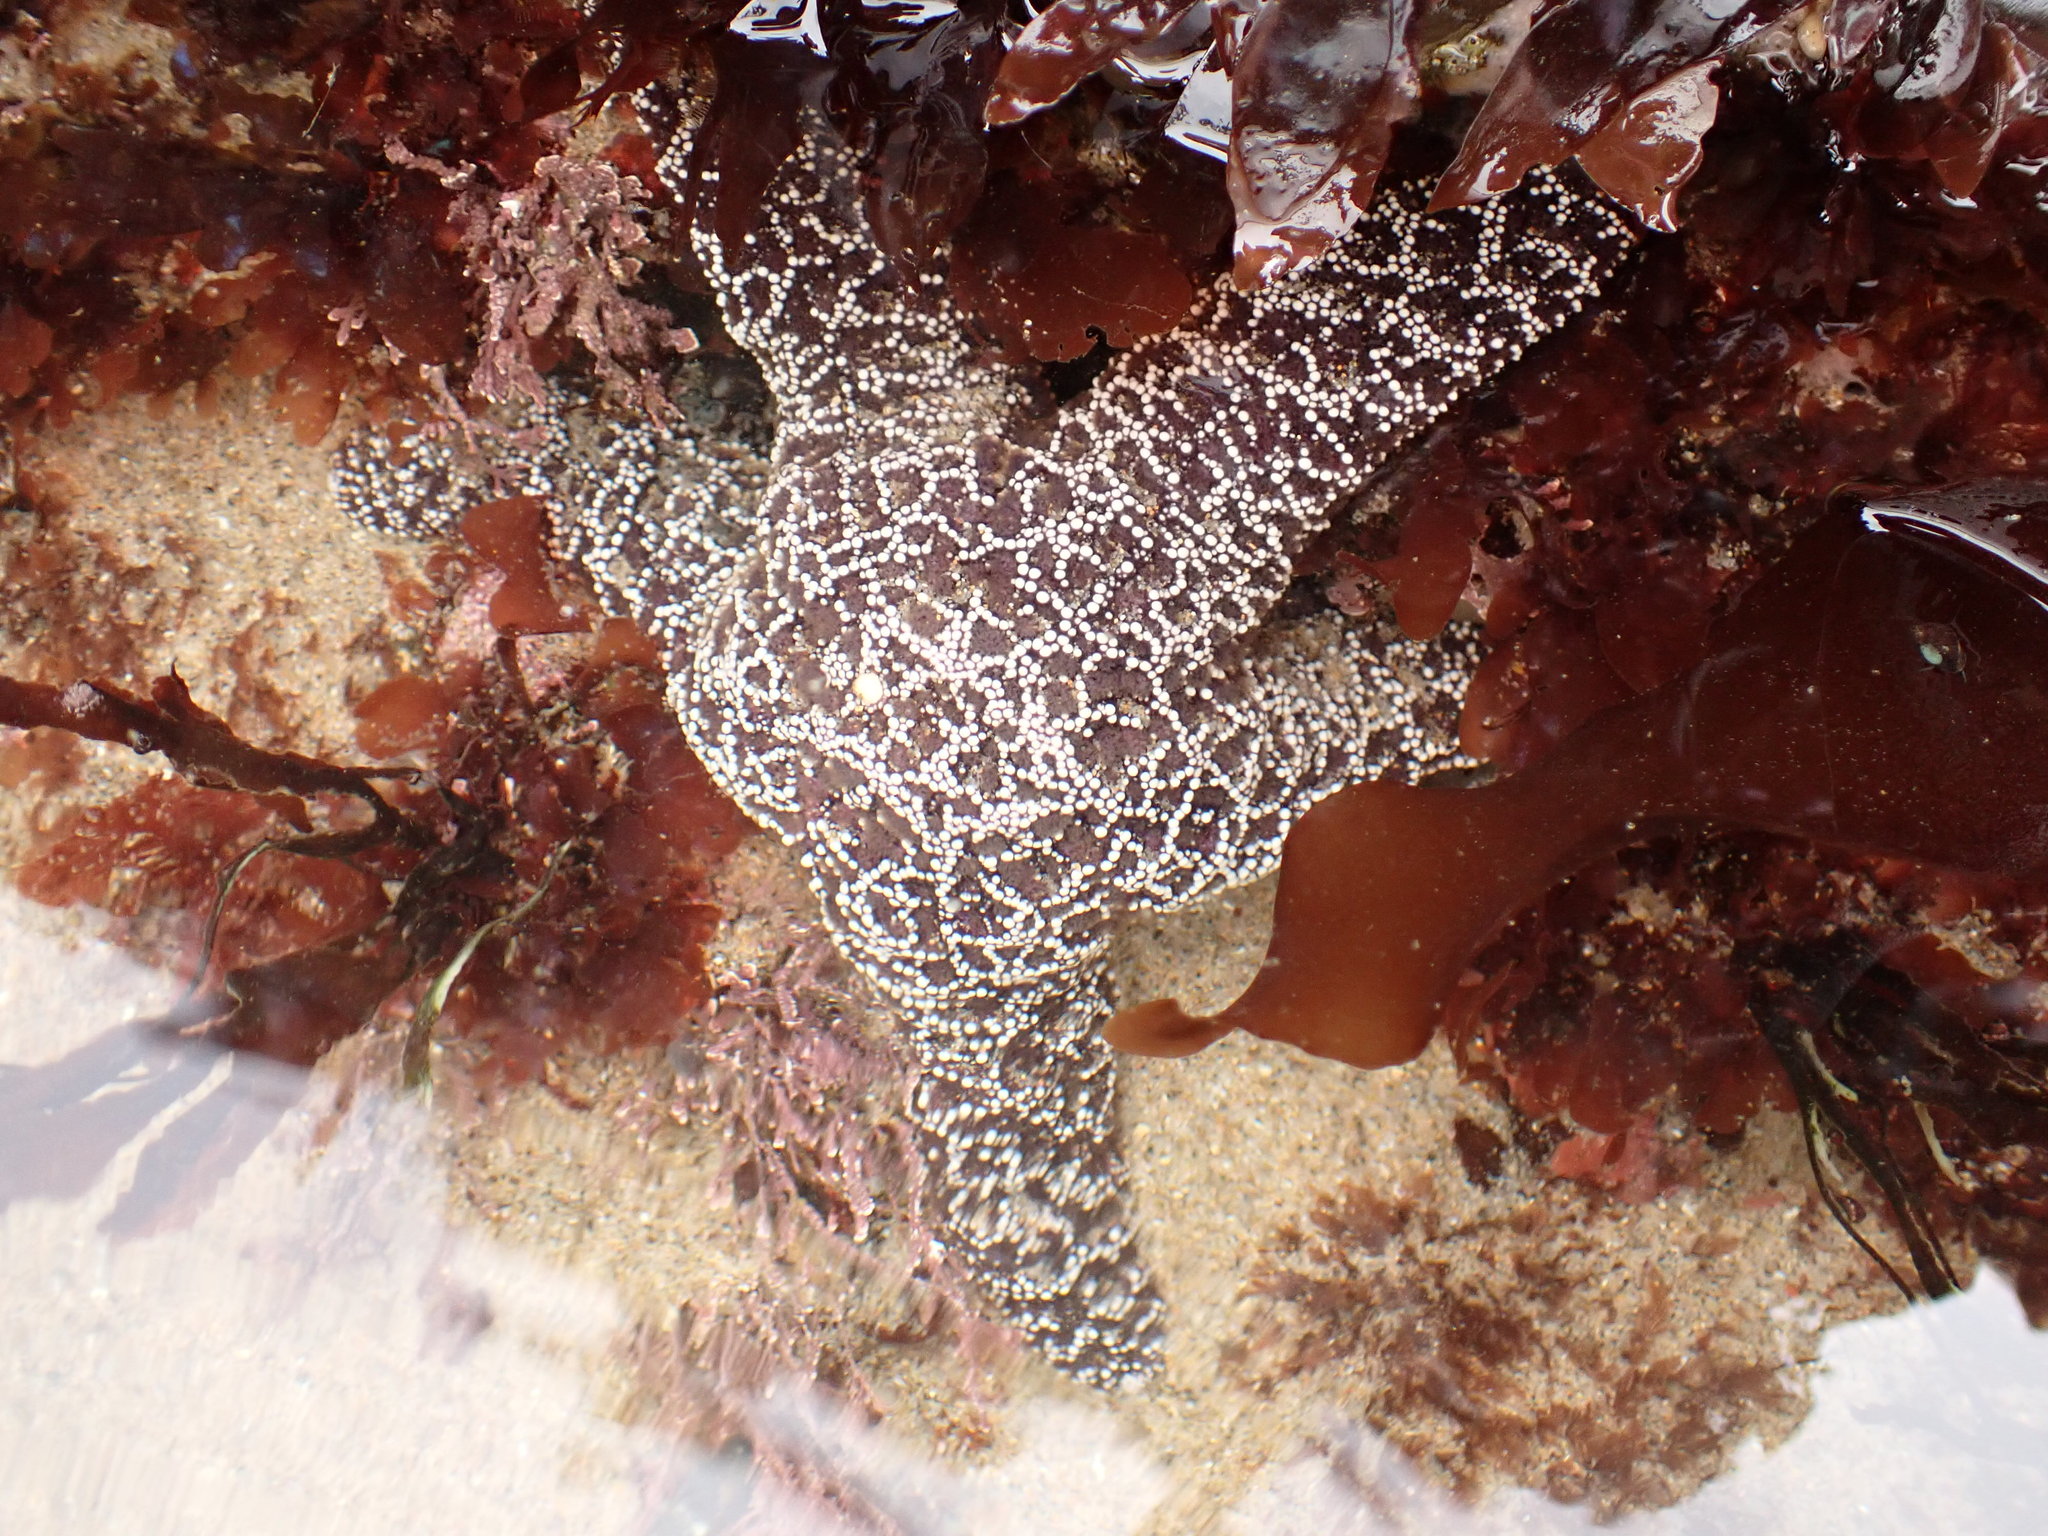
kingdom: Animalia
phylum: Echinodermata
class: Asteroidea
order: Forcipulatida
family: Asteriidae
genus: Pisaster
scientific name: Pisaster ochraceus
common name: Ochre stars
